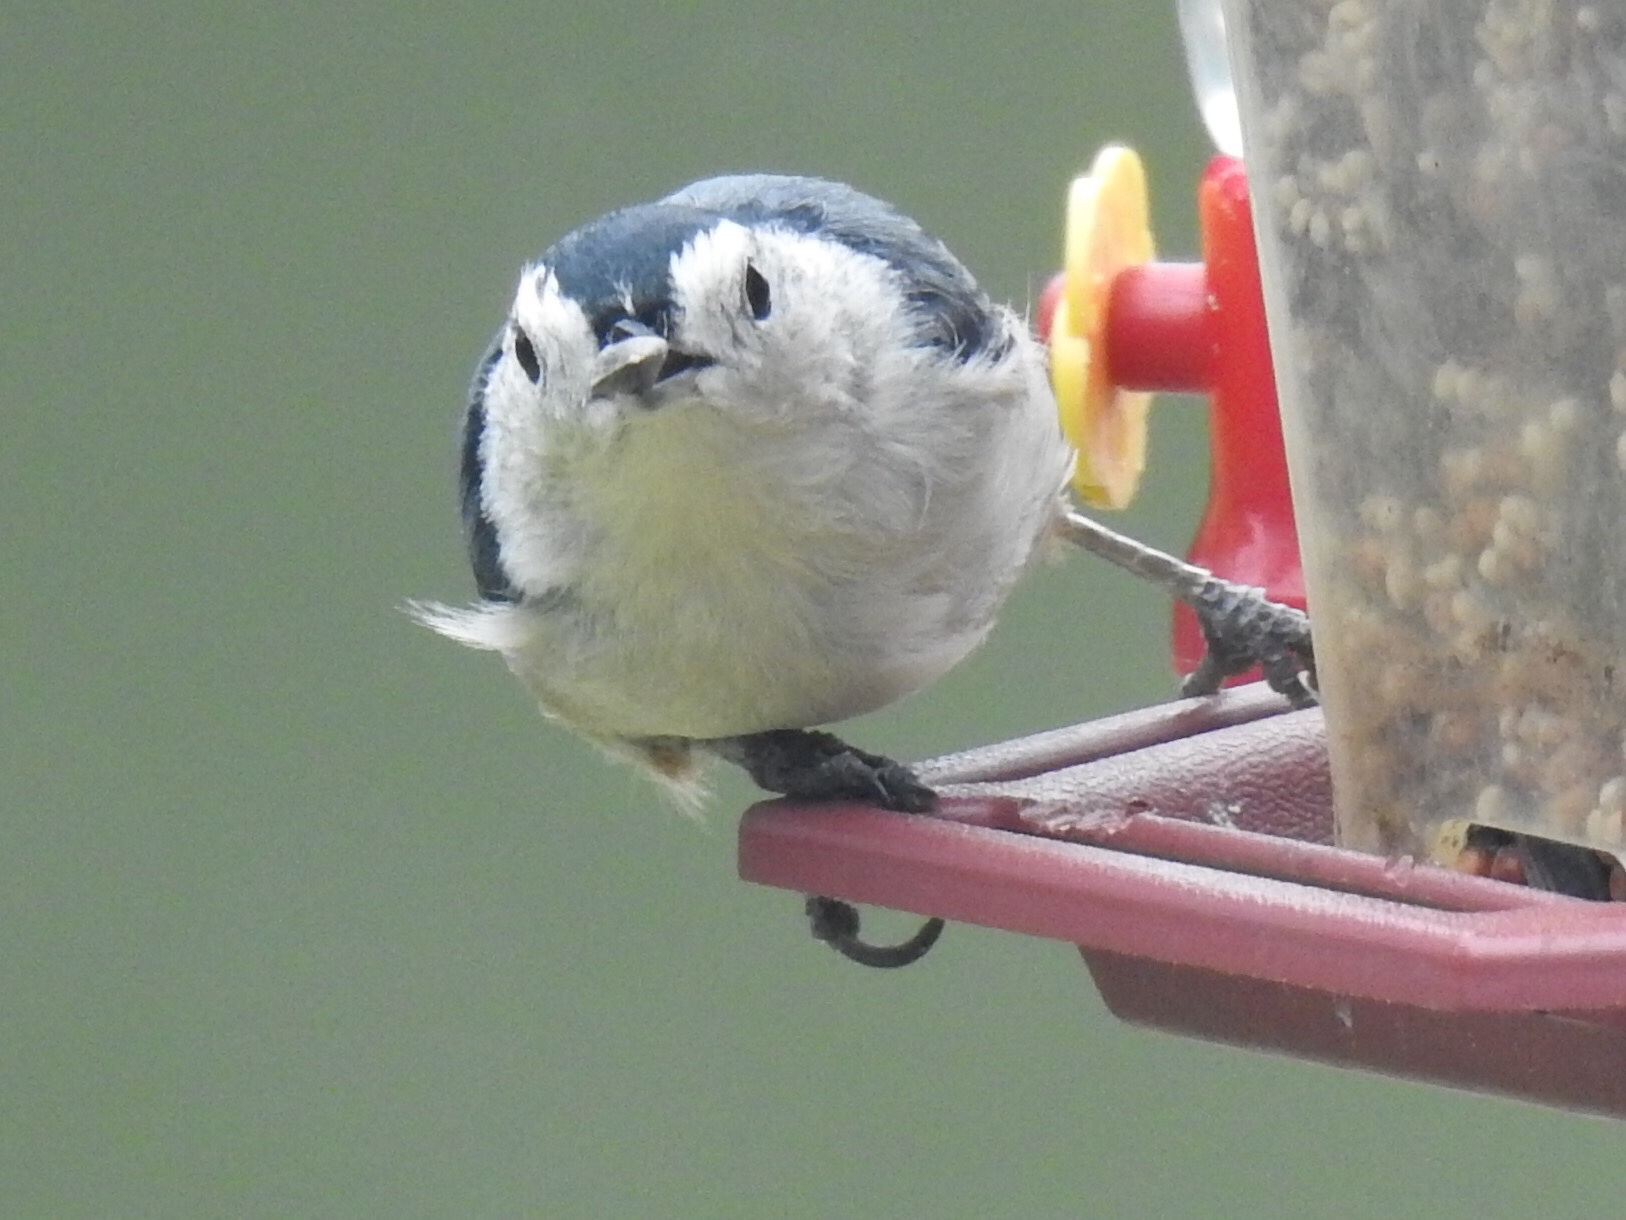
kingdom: Animalia
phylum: Chordata
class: Aves
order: Passeriformes
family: Sittidae
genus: Sitta
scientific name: Sitta carolinensis
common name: White-breasted nuthatch
